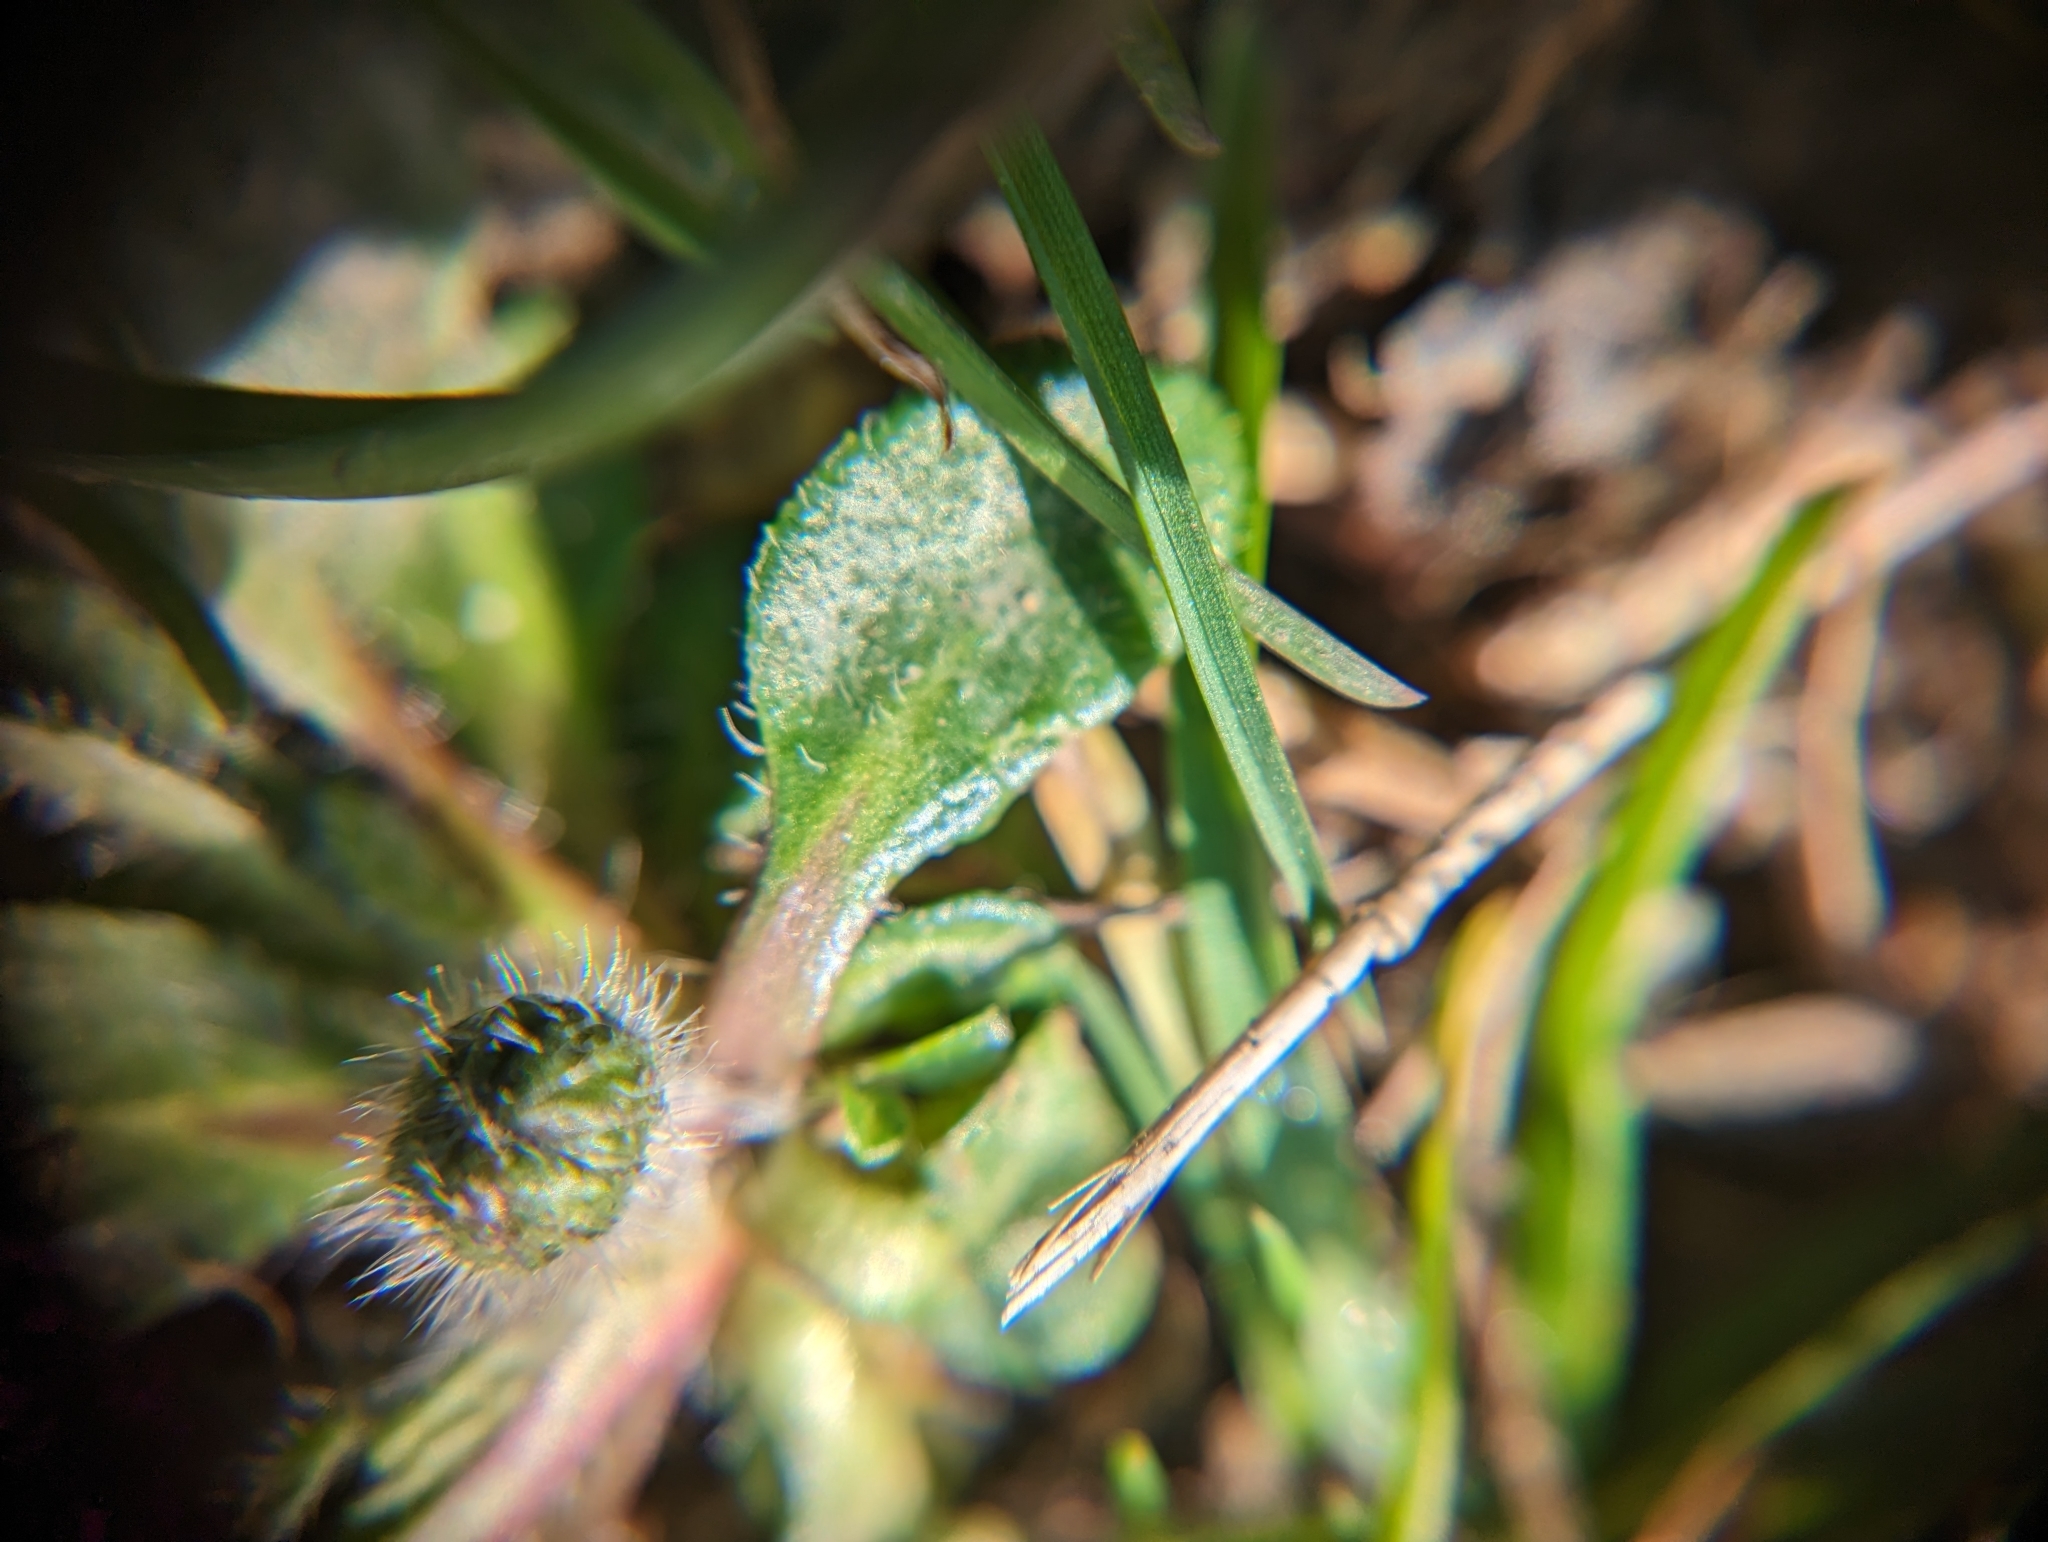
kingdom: Plantae
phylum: Tracheophyta
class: Magnoliopsida
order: Asterales
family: Asteraceae
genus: Bellis
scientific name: Bellis perennis
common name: Lawndaisy
